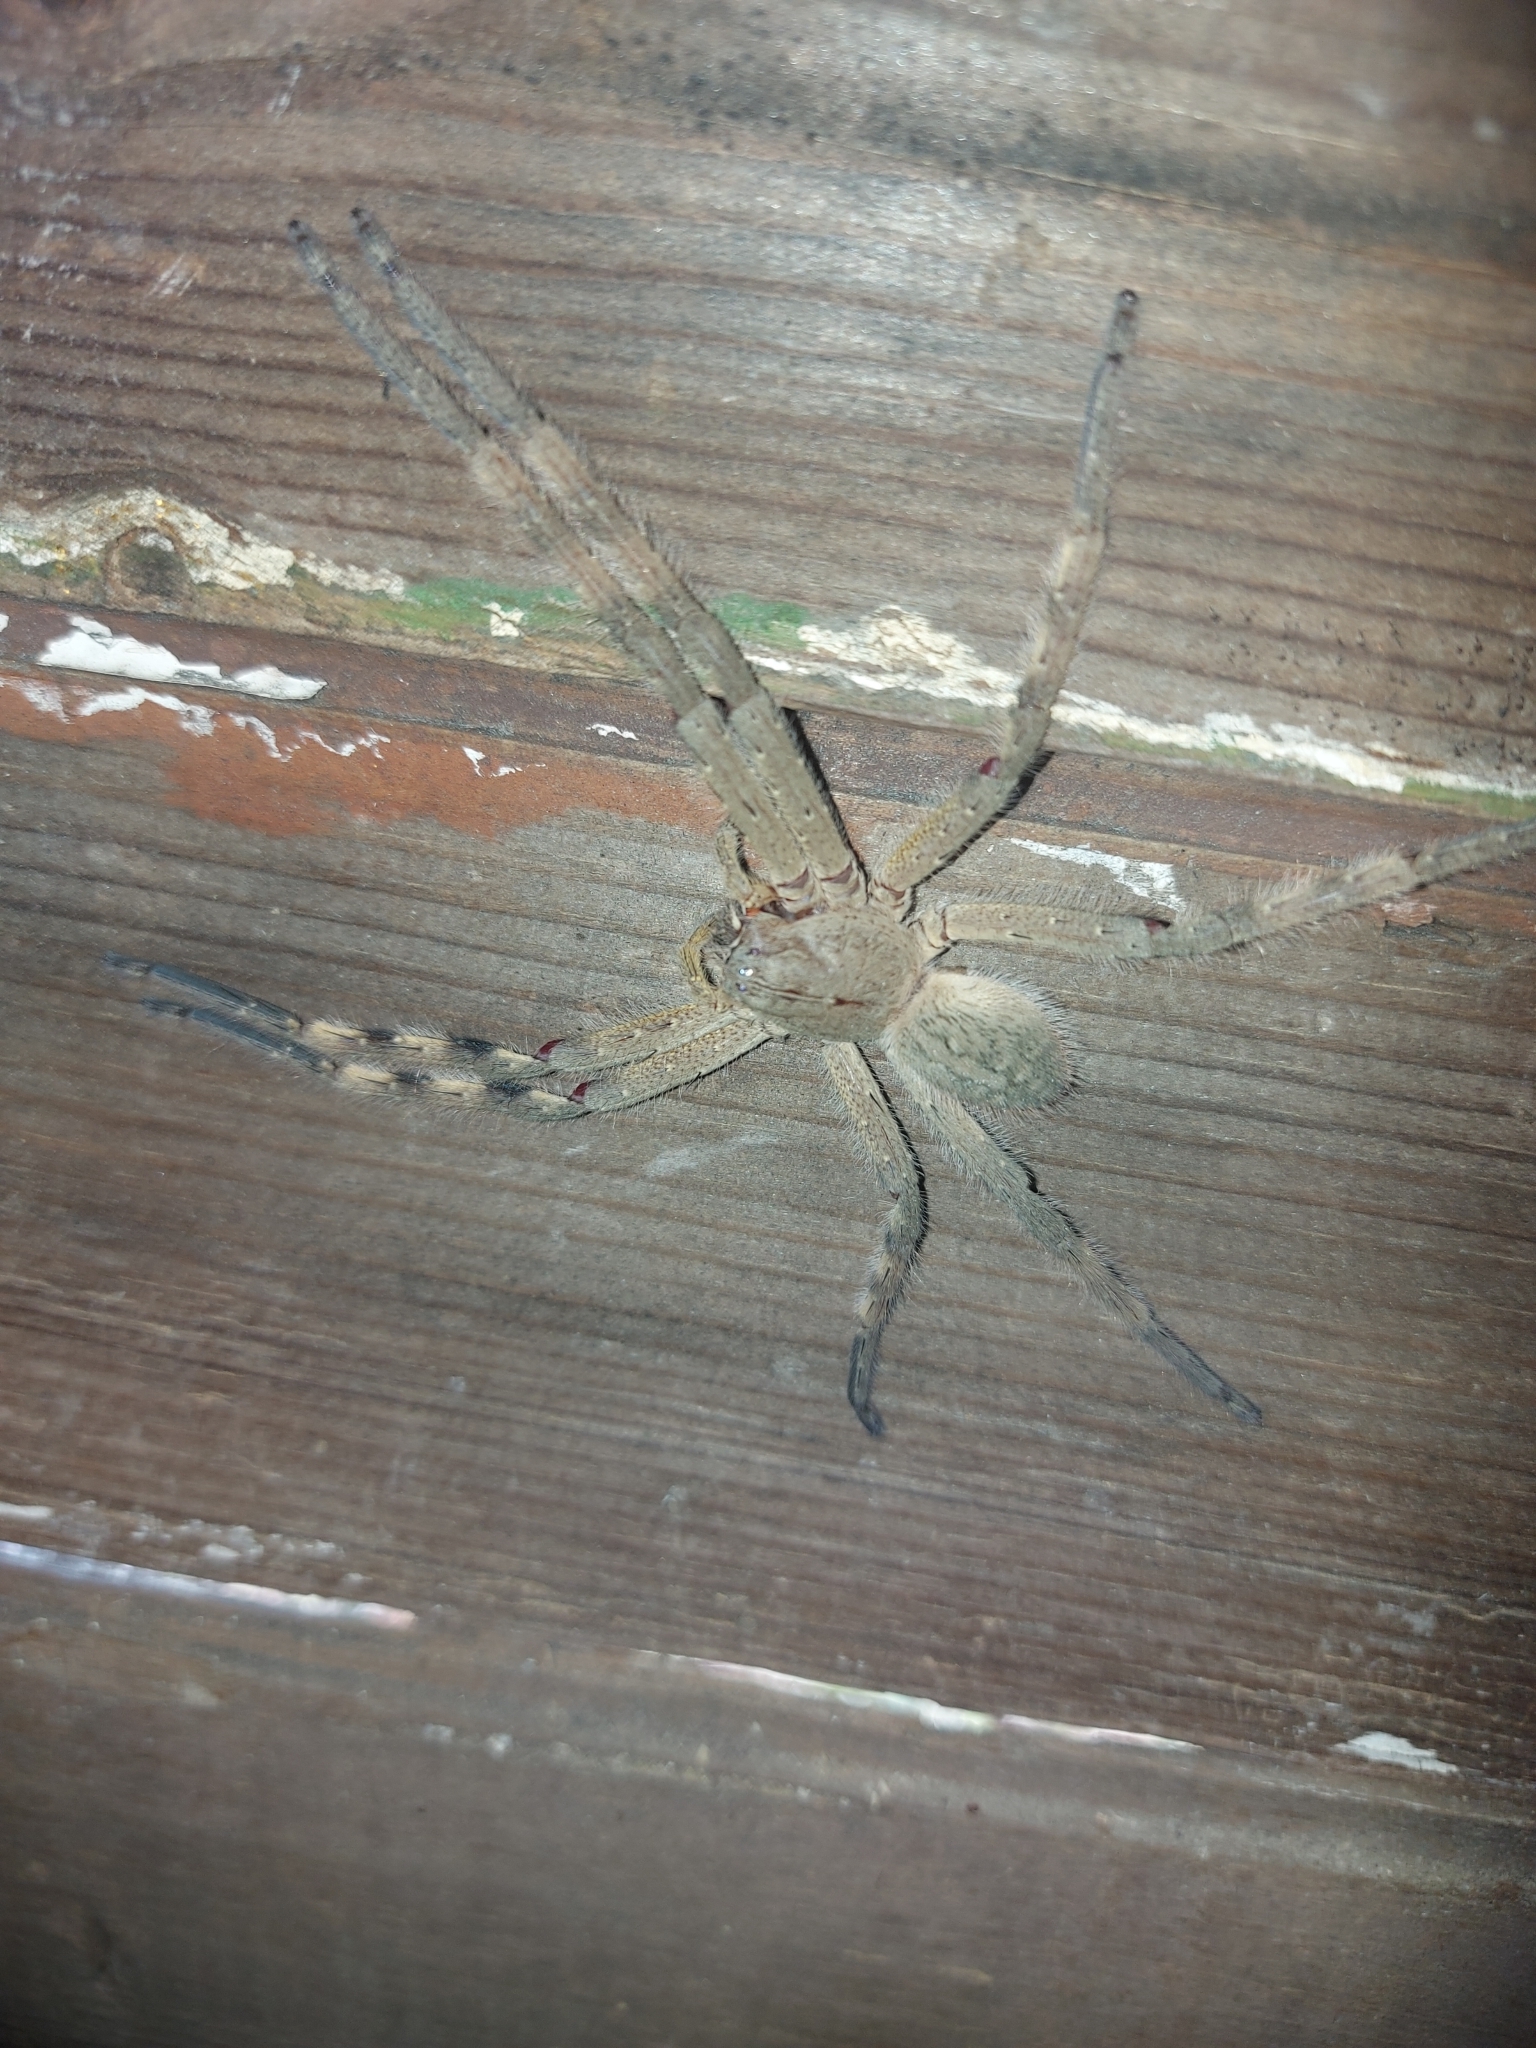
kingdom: Animalia
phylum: Arthropoda
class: Arachnida
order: Araneae
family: Sparassidae
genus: Palystes
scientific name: Palystes martinfilmeri
